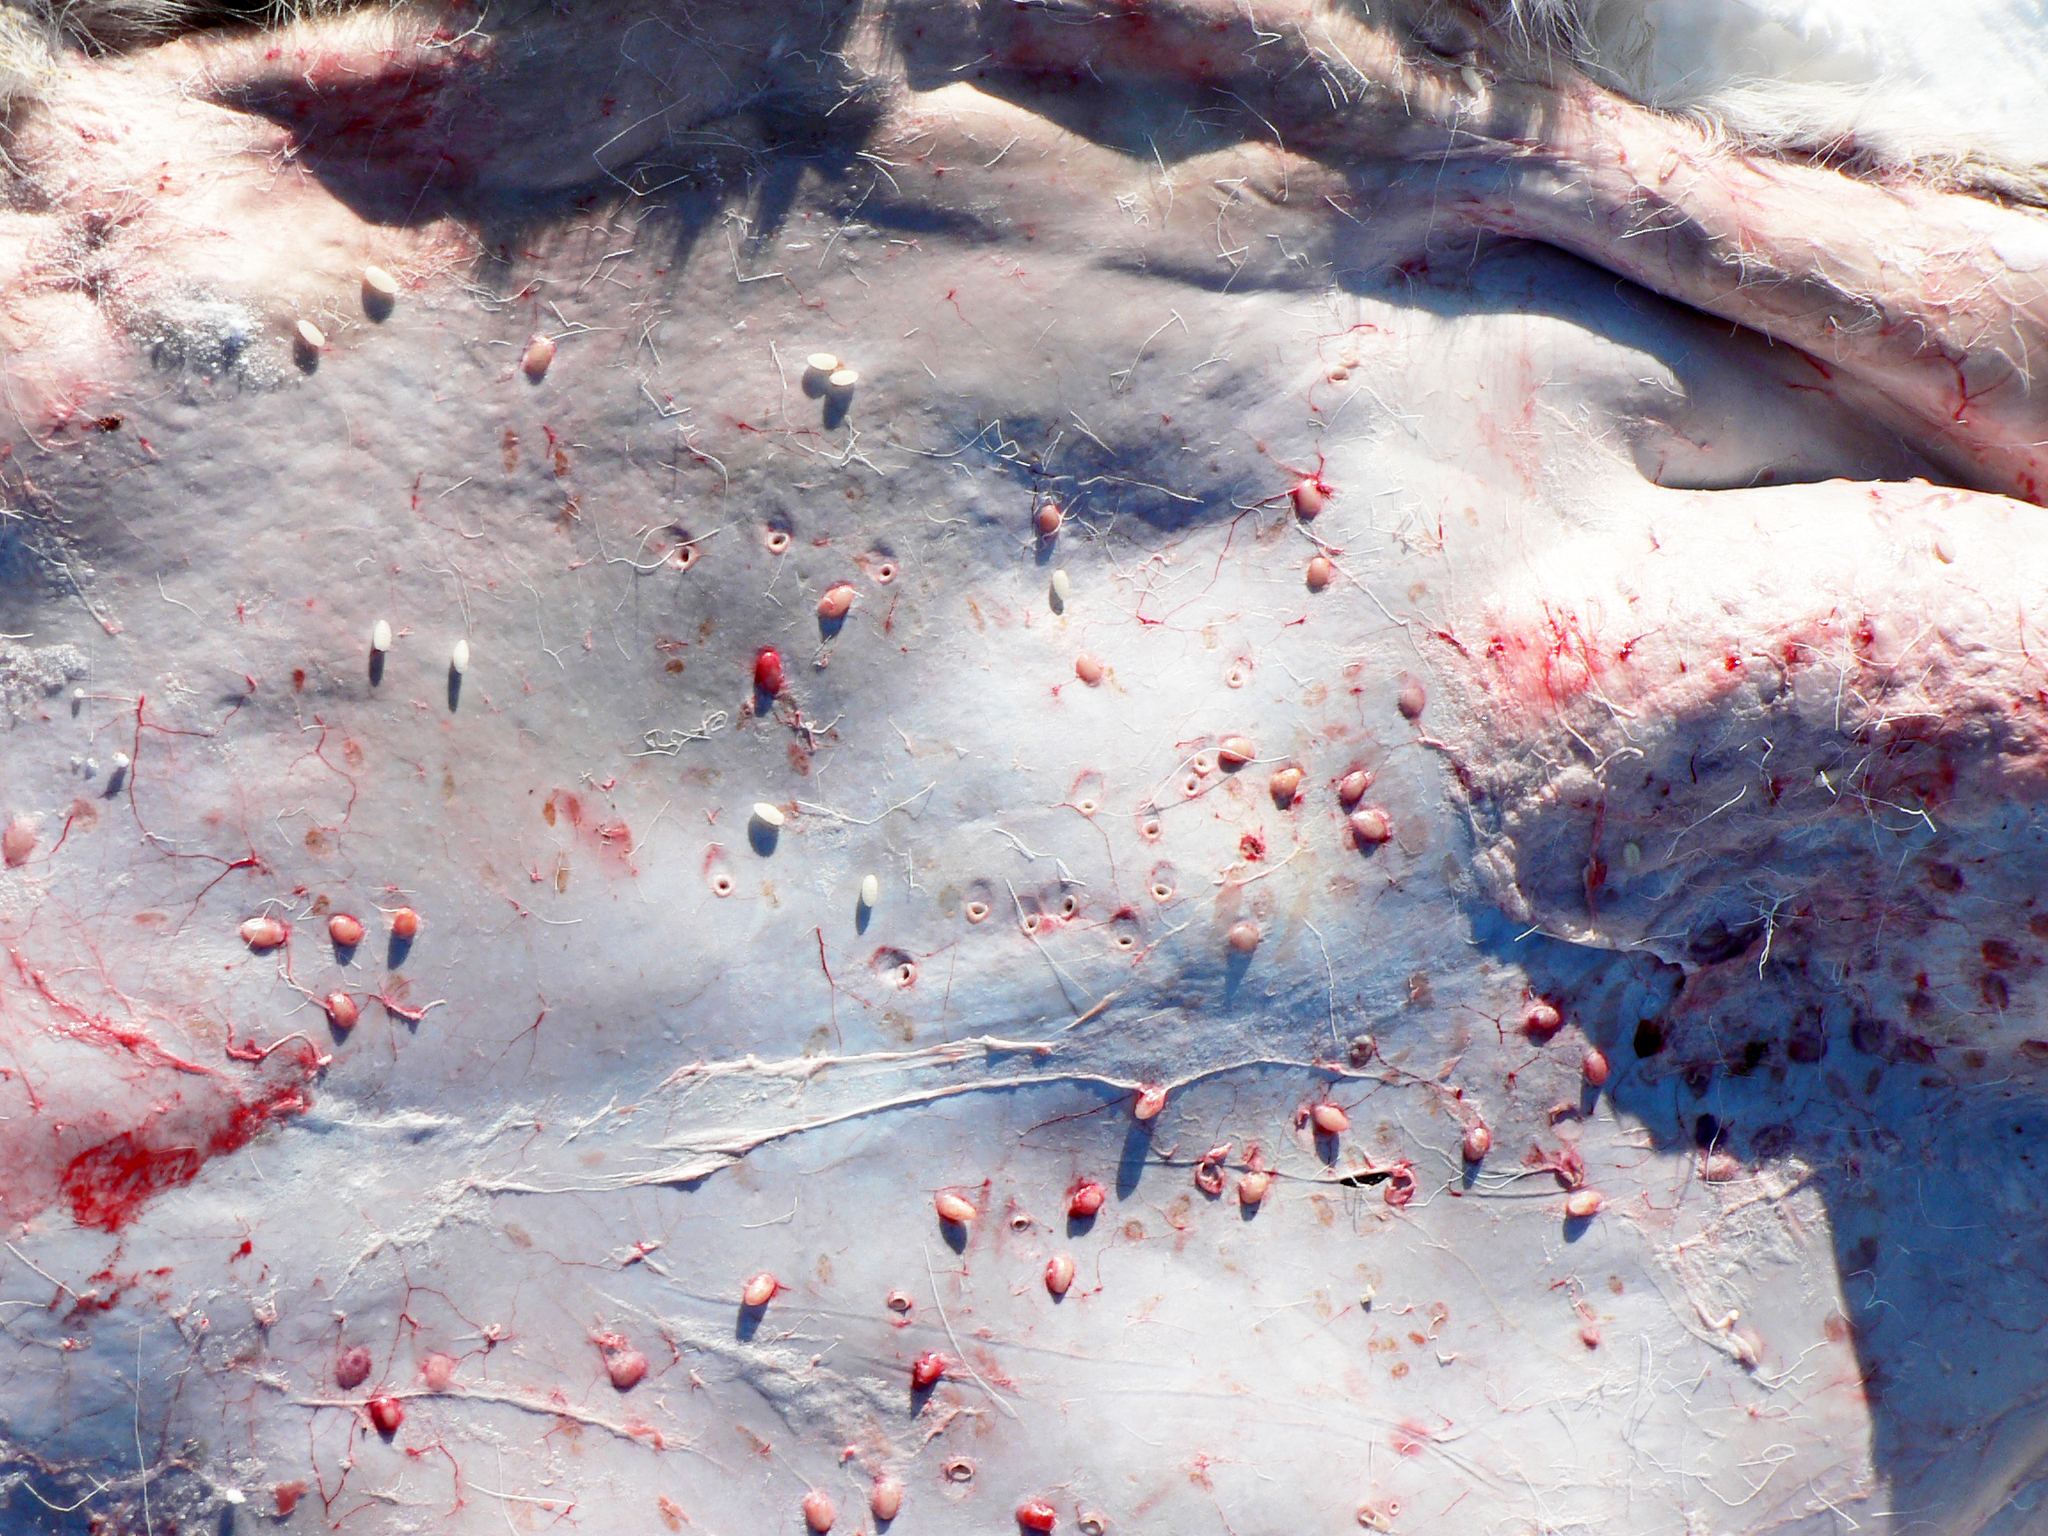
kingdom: Animalia
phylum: Arthropoda
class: Insecta
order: Diptera
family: Oestridae
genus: Hypoderma
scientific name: Hypoderma tarandi
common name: Botfly
